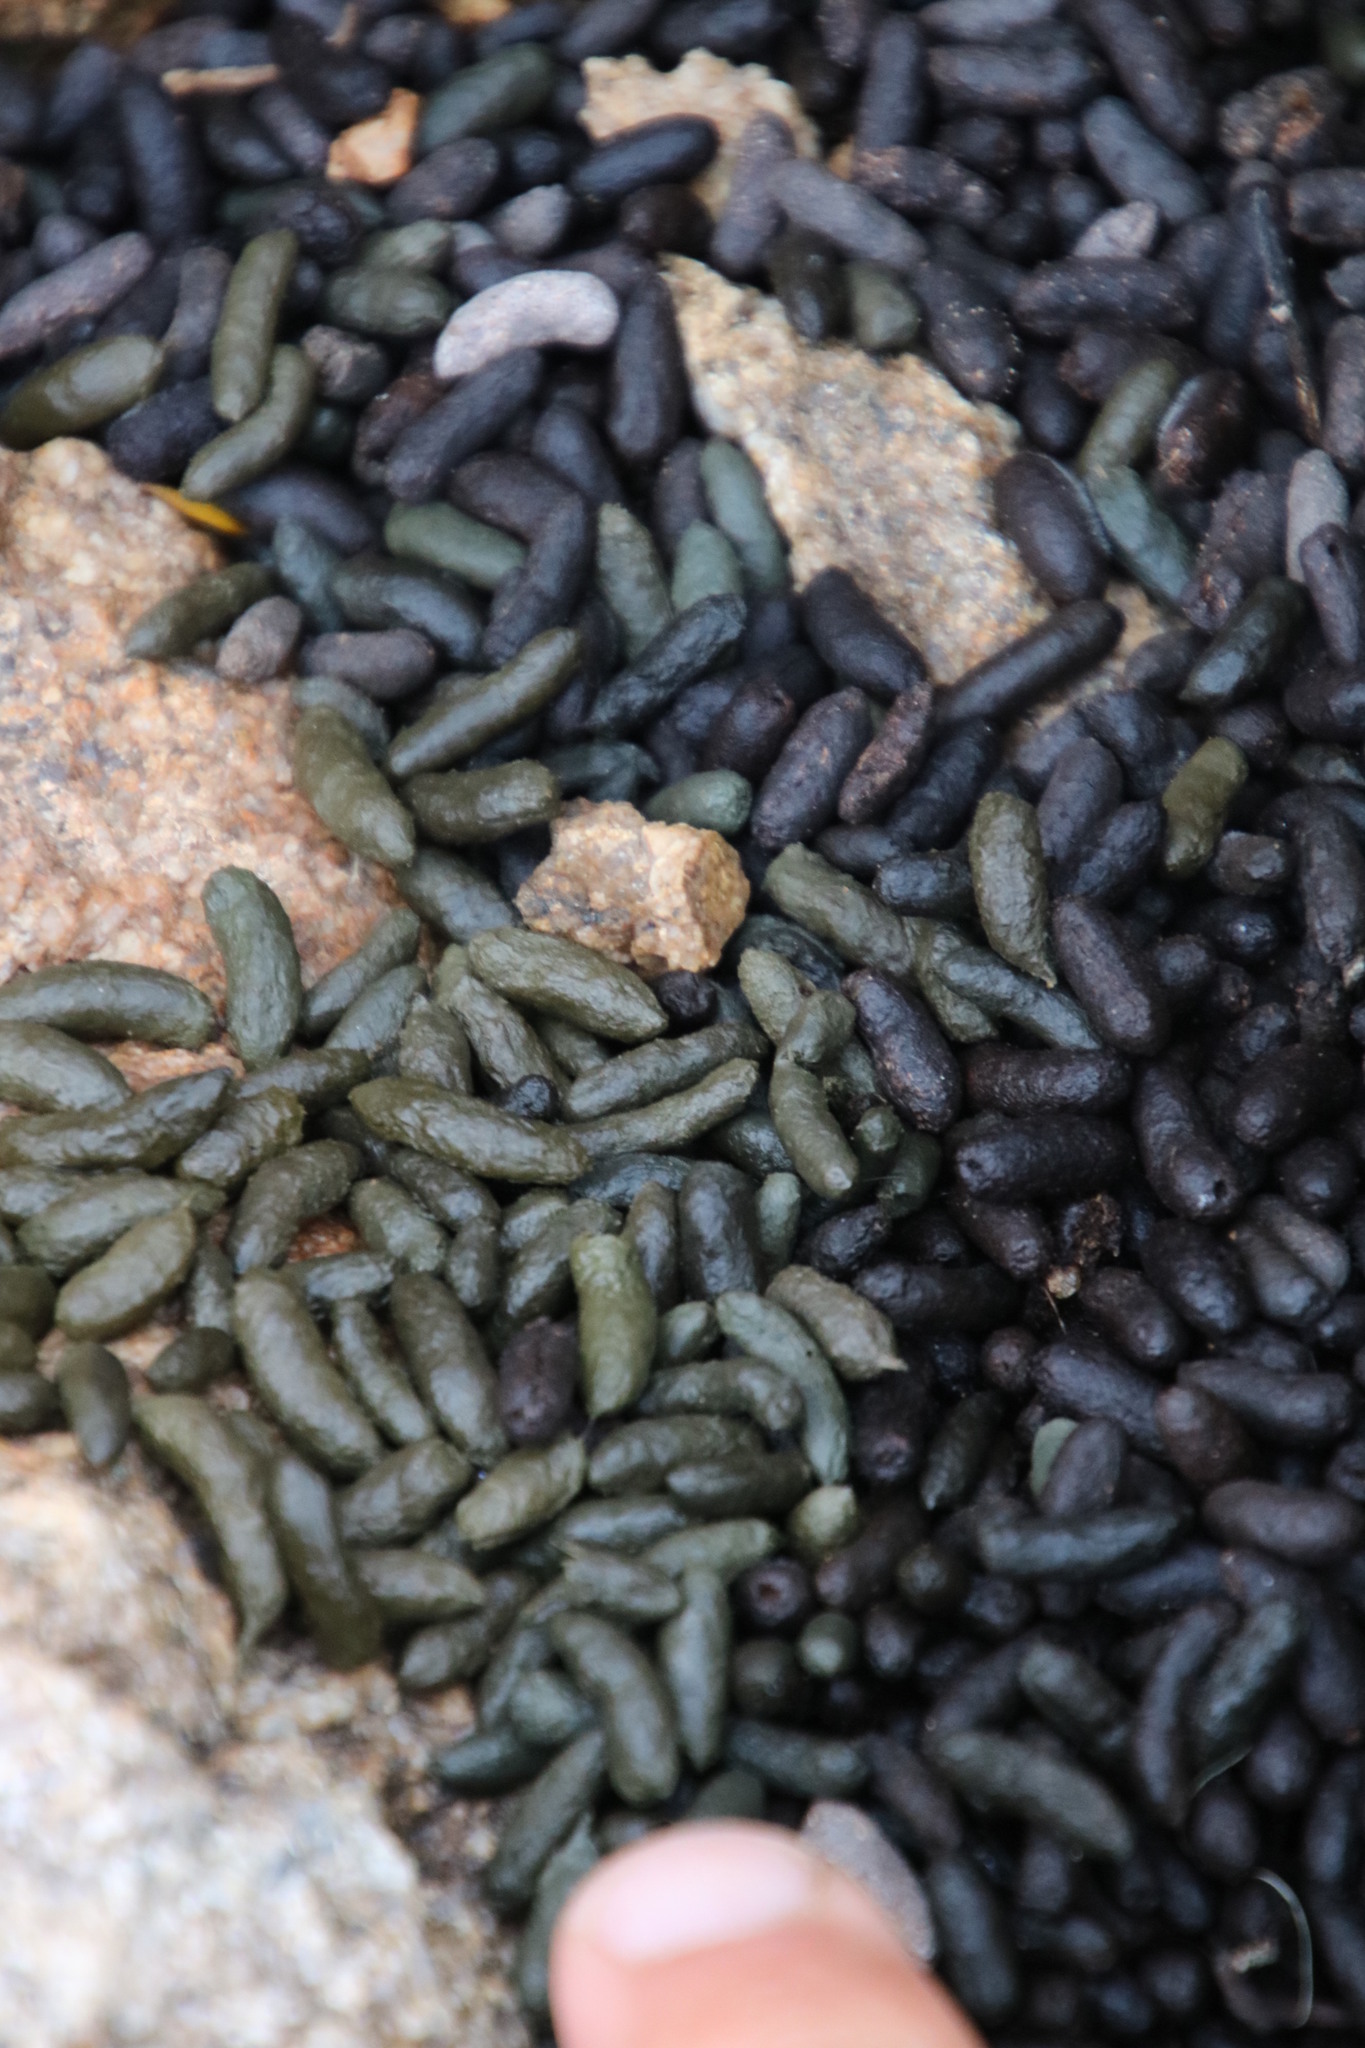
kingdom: Animalia
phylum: Chordata
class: Mammalia
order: Rodentia
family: Petromuridae
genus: Petromus
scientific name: Petromus typicus
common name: Dassie rat
